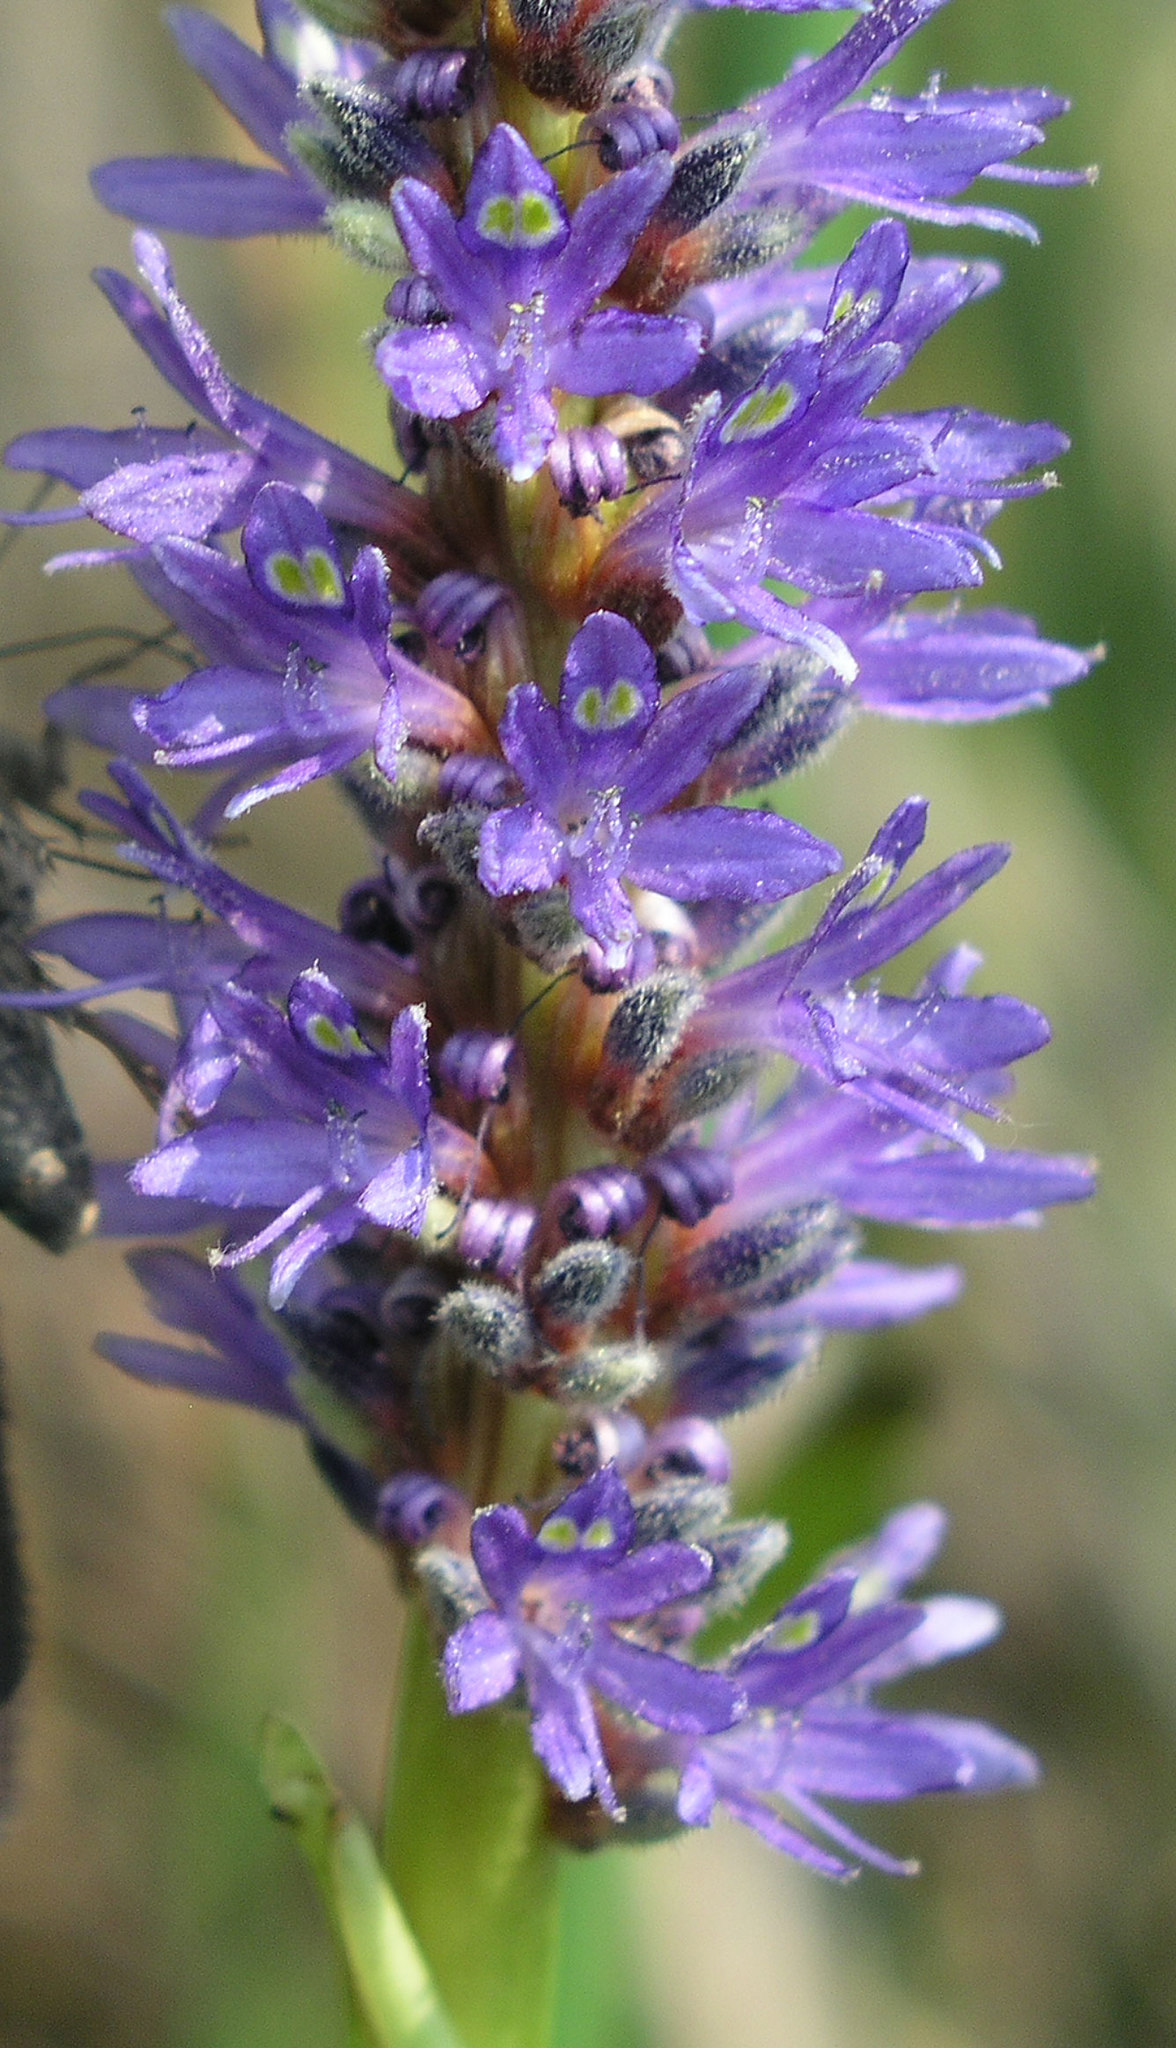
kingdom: Plantae
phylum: Tracheophyta
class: Liliopsida
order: Commelinales
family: Pontederiaceae
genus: Pontederia
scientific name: Pontederia cordata
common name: Pickerelweed
